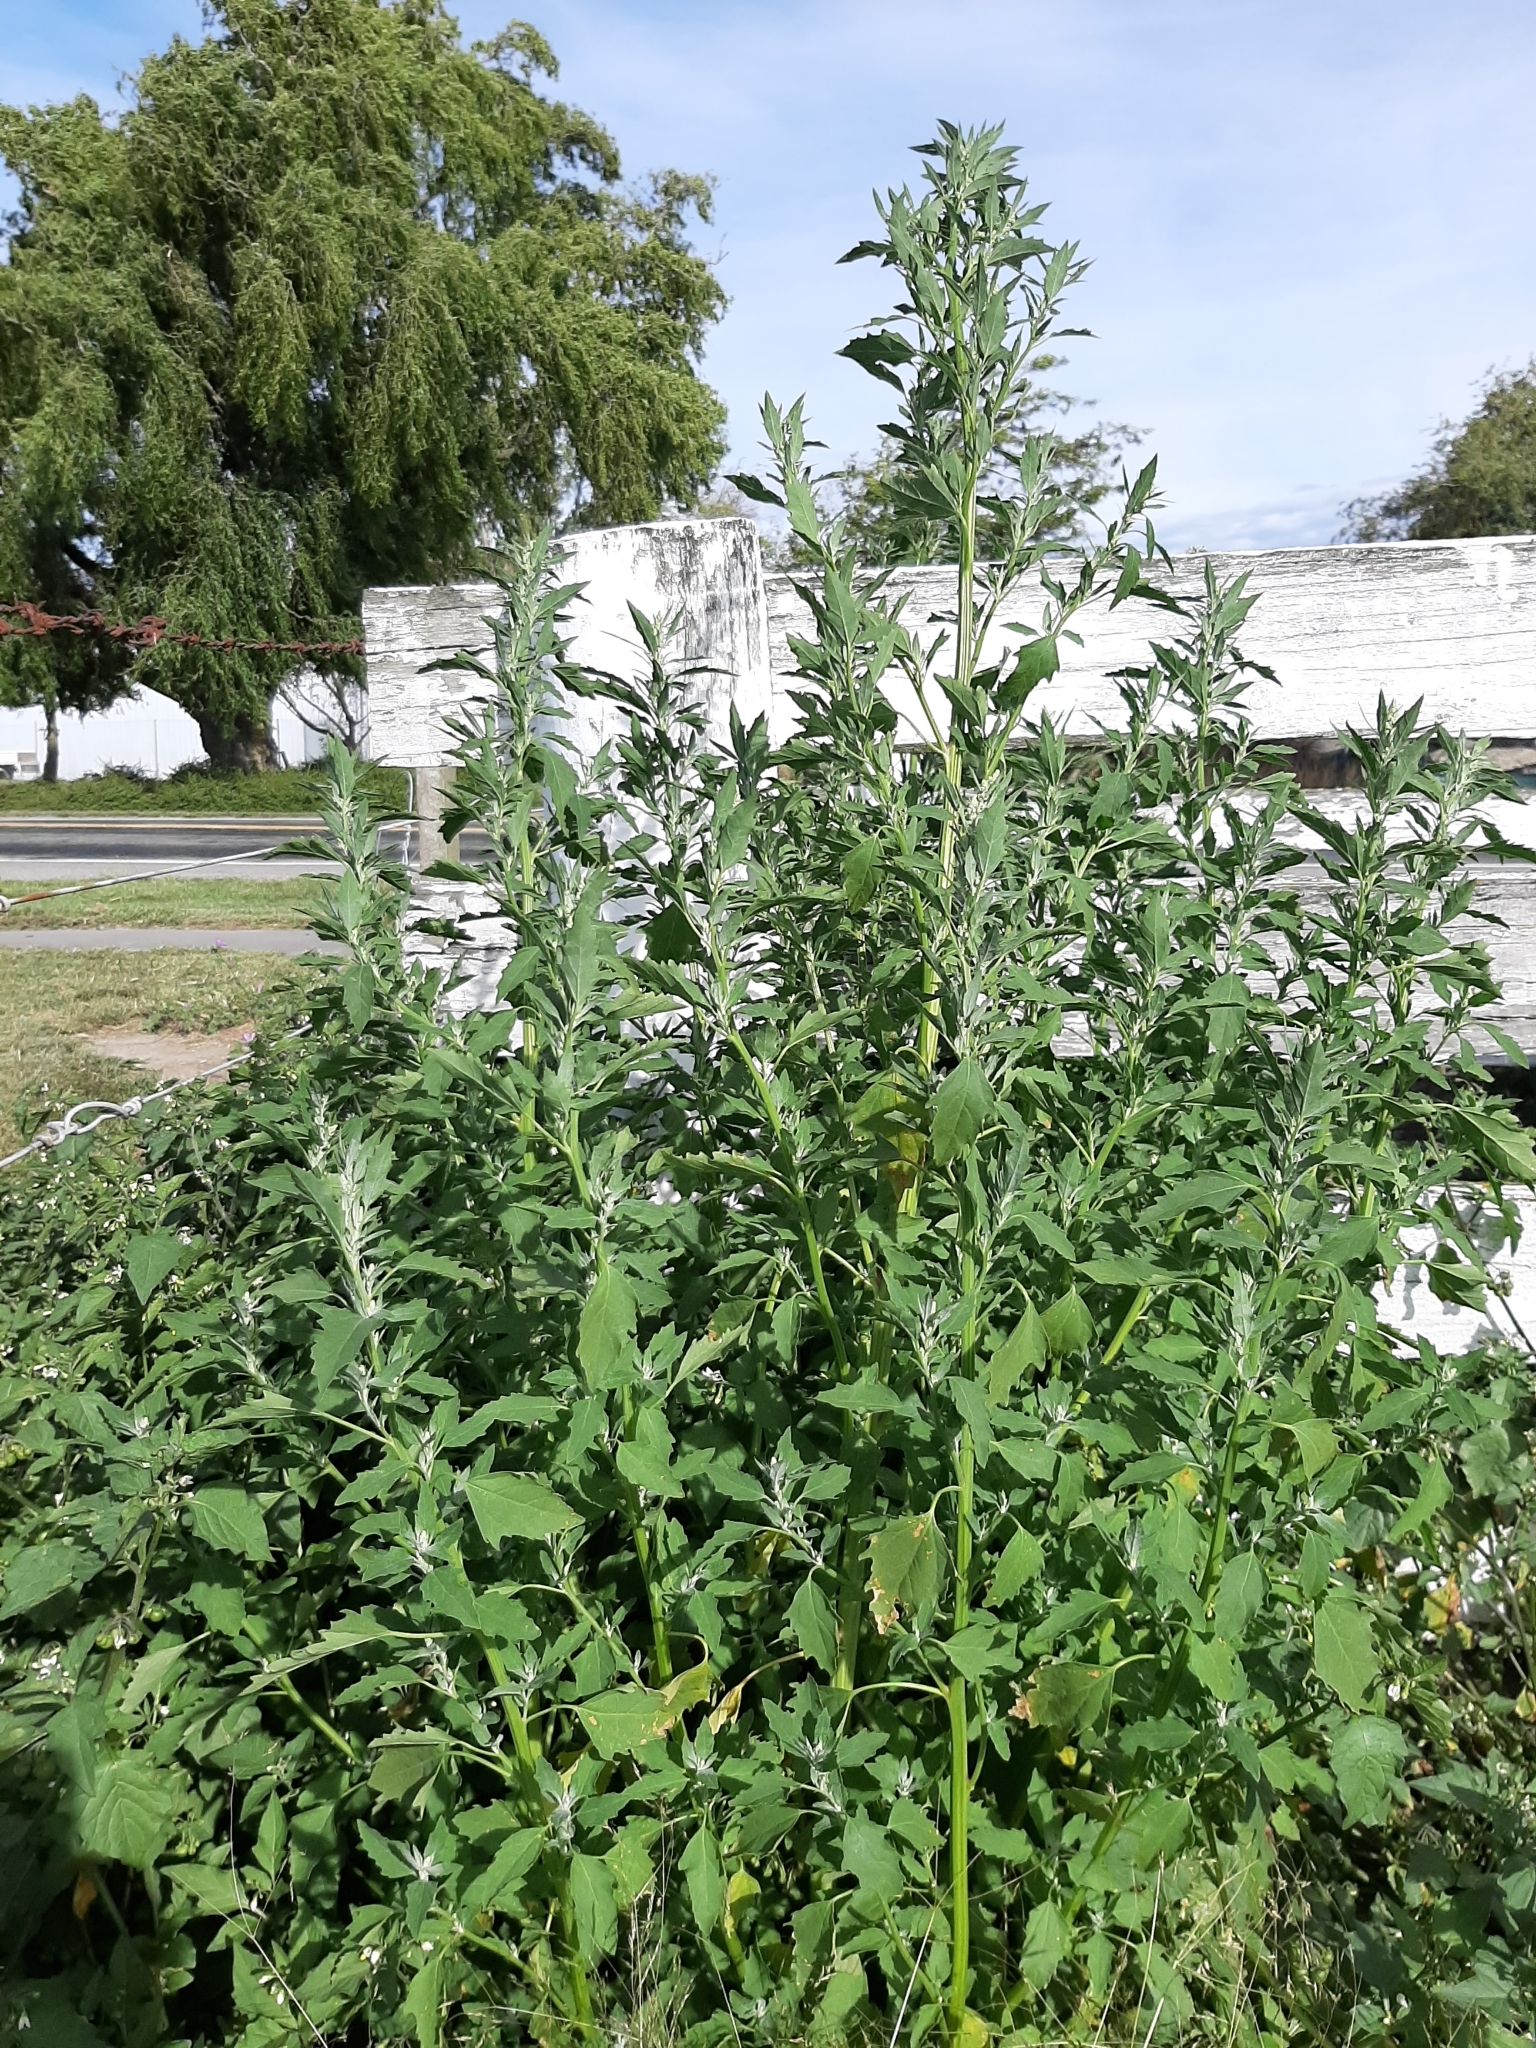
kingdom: Plantae
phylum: Tracheophyta
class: Magnoliopsida
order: Caryophyllales
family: Amaranthaceae
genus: Chenopodium
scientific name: Chenopodium album
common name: Fat-hen
